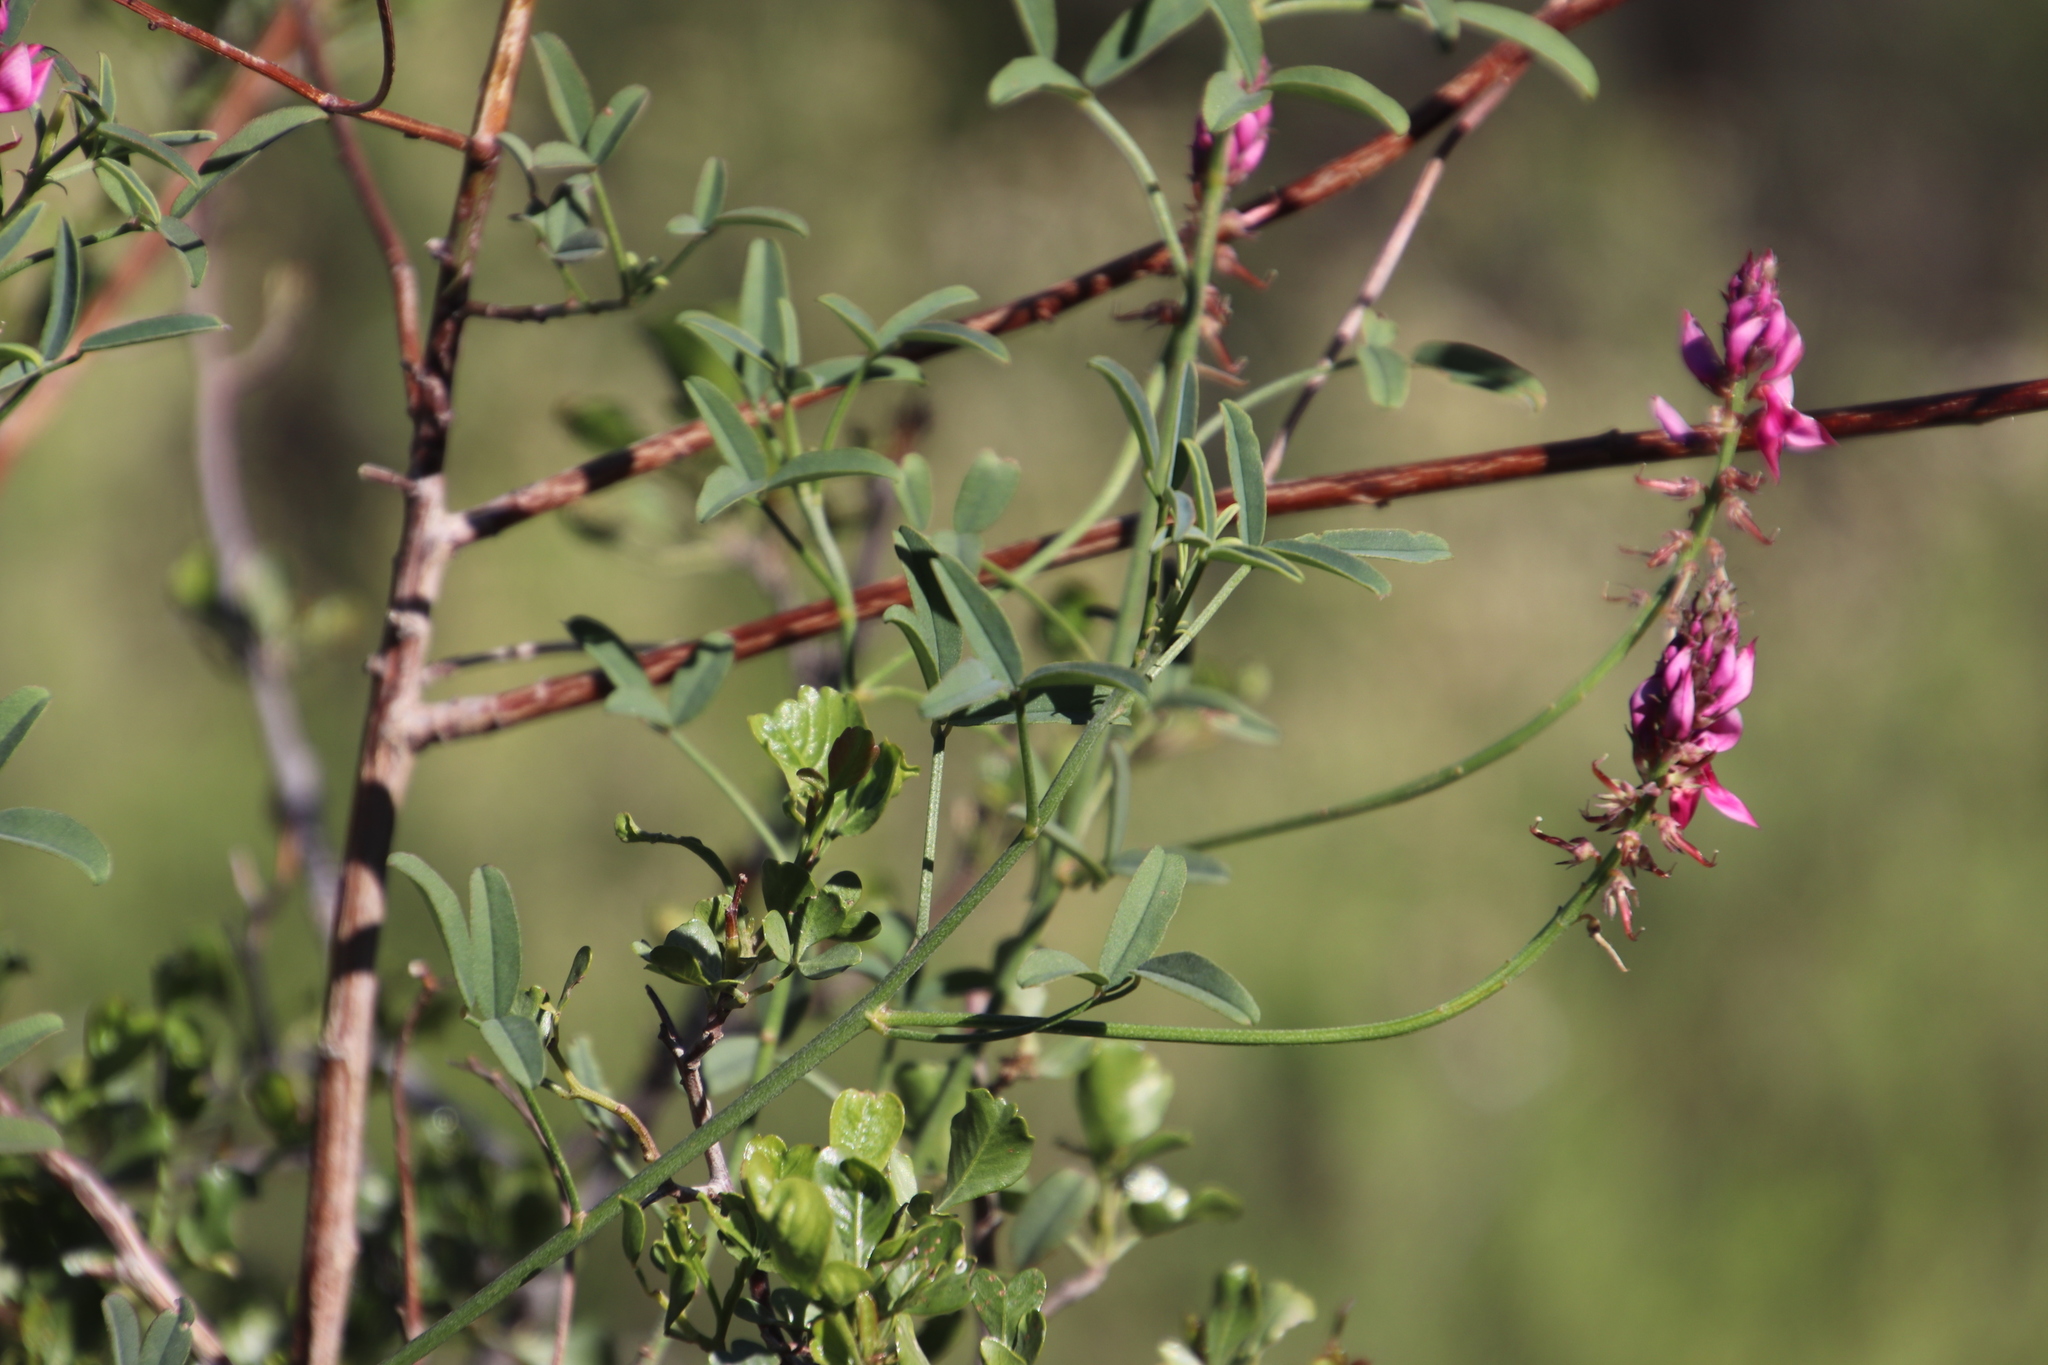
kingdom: Plantae
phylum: Tracheophyta
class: Magnoliopsida
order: Fabales
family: Fabaceae
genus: Indigofera
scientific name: Indigofera intermedia
